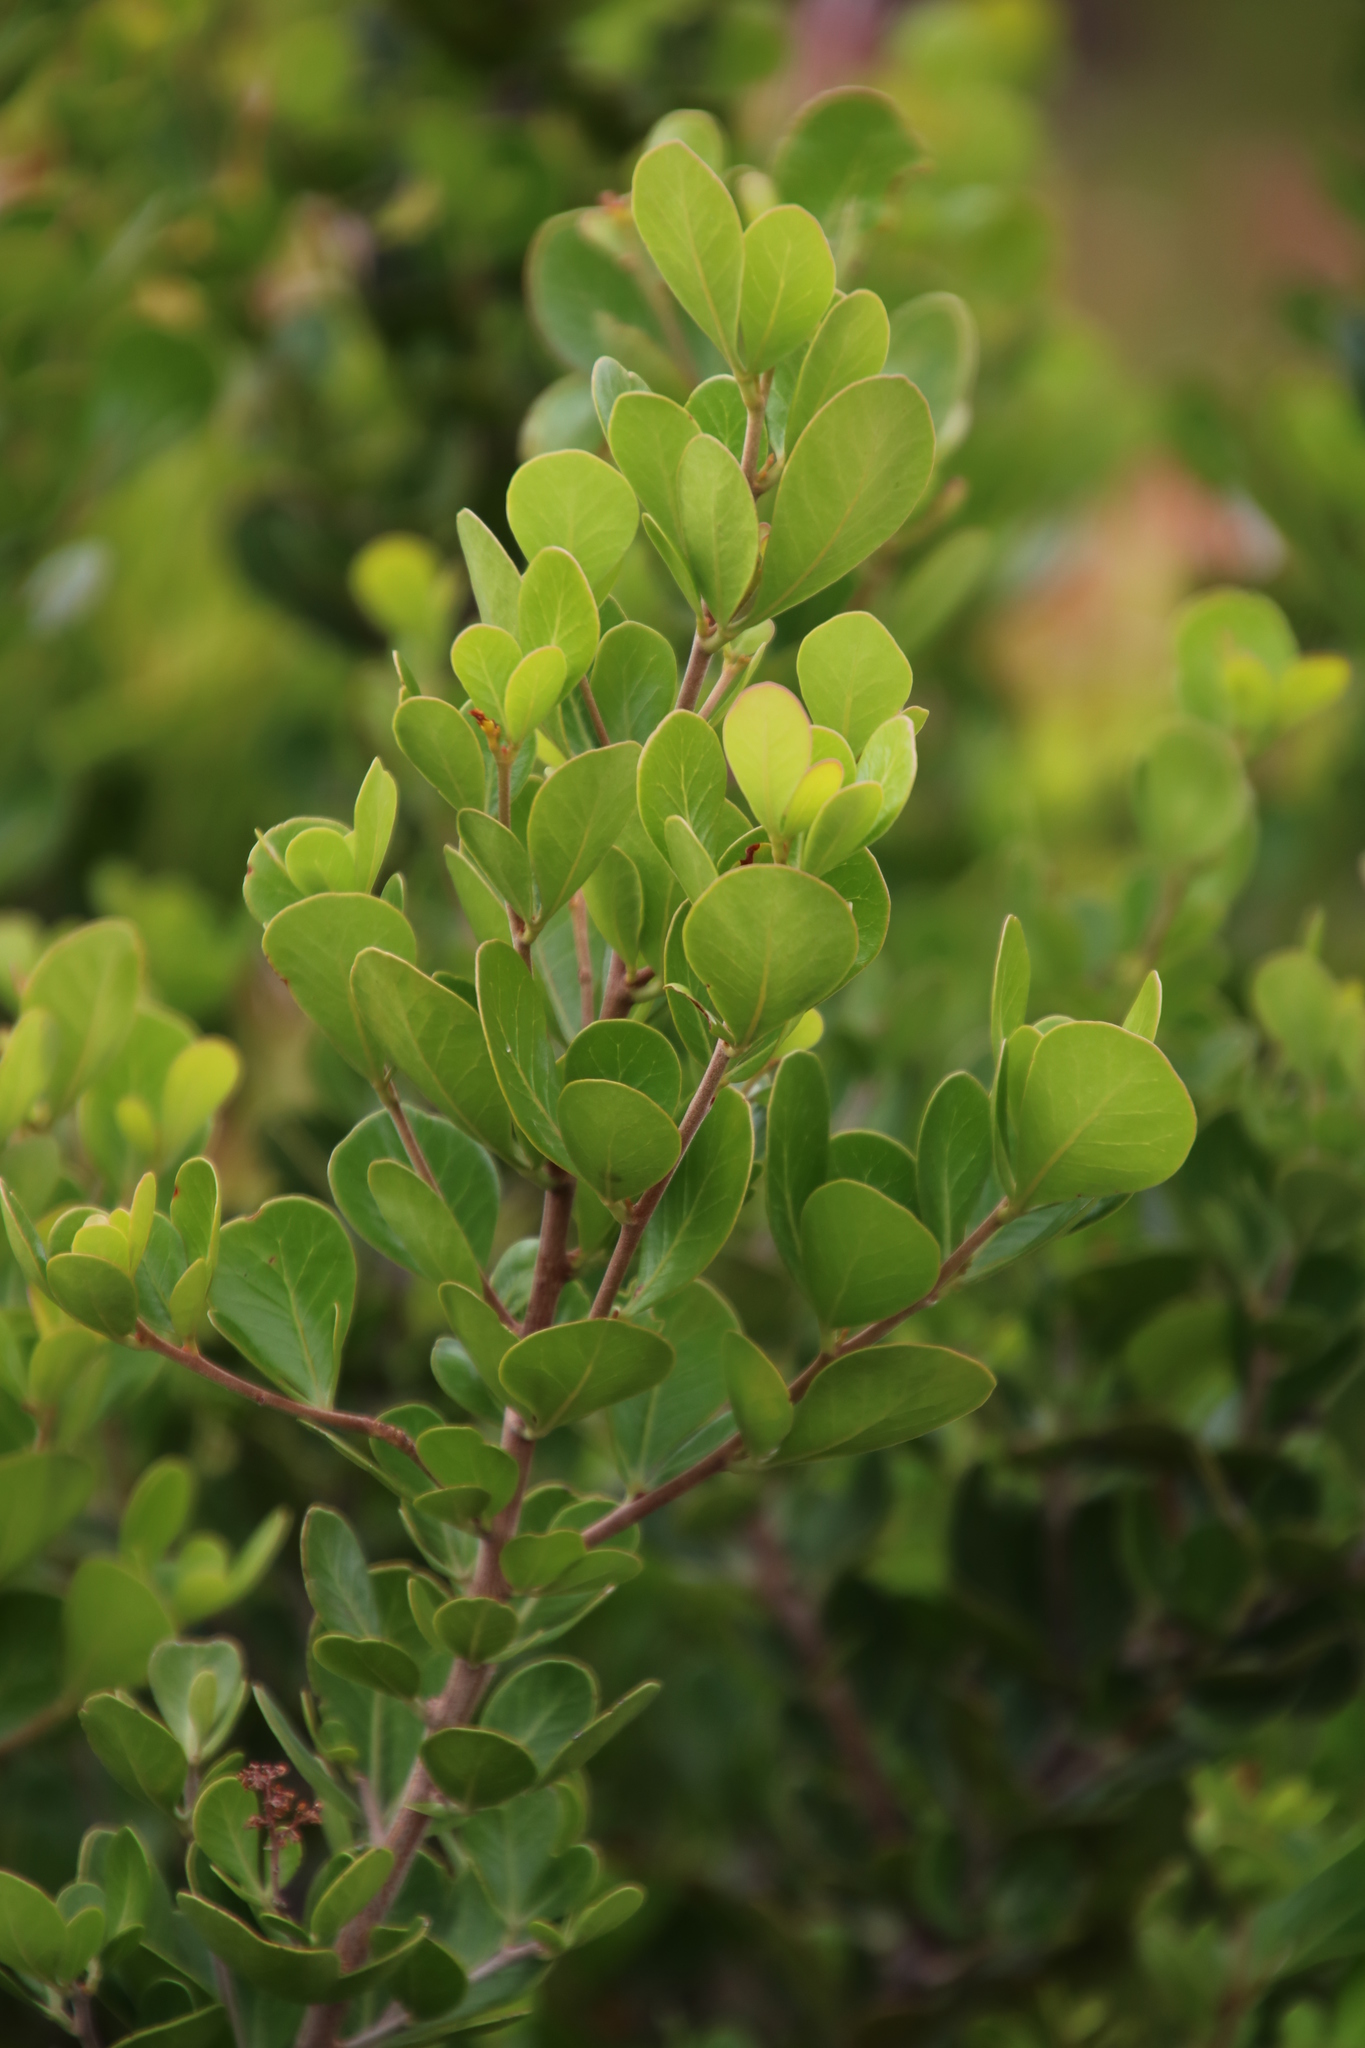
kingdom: Plantae
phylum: Tracheophyta
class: Magnoliopsida
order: Sapindales
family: Anacardiaceae
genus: Searsia
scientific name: Searsia lucida
